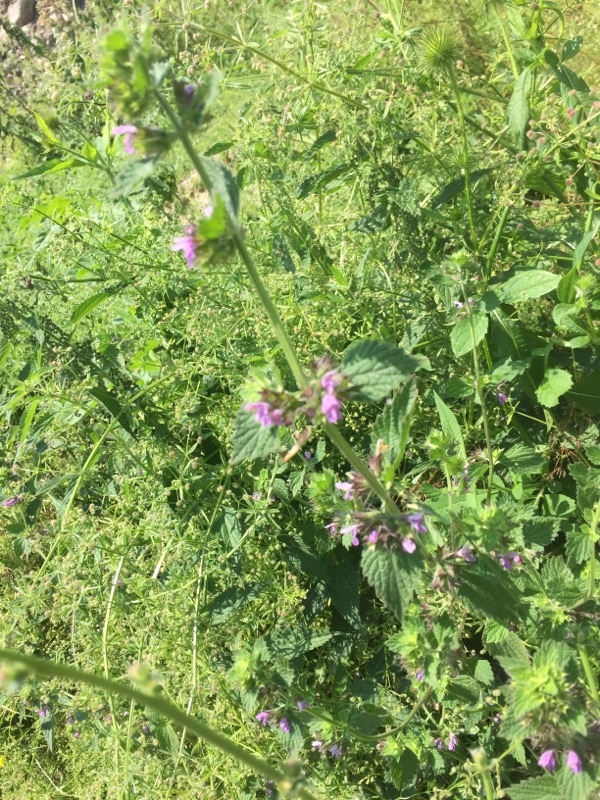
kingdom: Plantae
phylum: Tracheophyta
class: Magnoliopsida
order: Lamiales
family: Lamiaceae
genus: Ballota
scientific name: Ballota nigra
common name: Black horehound
